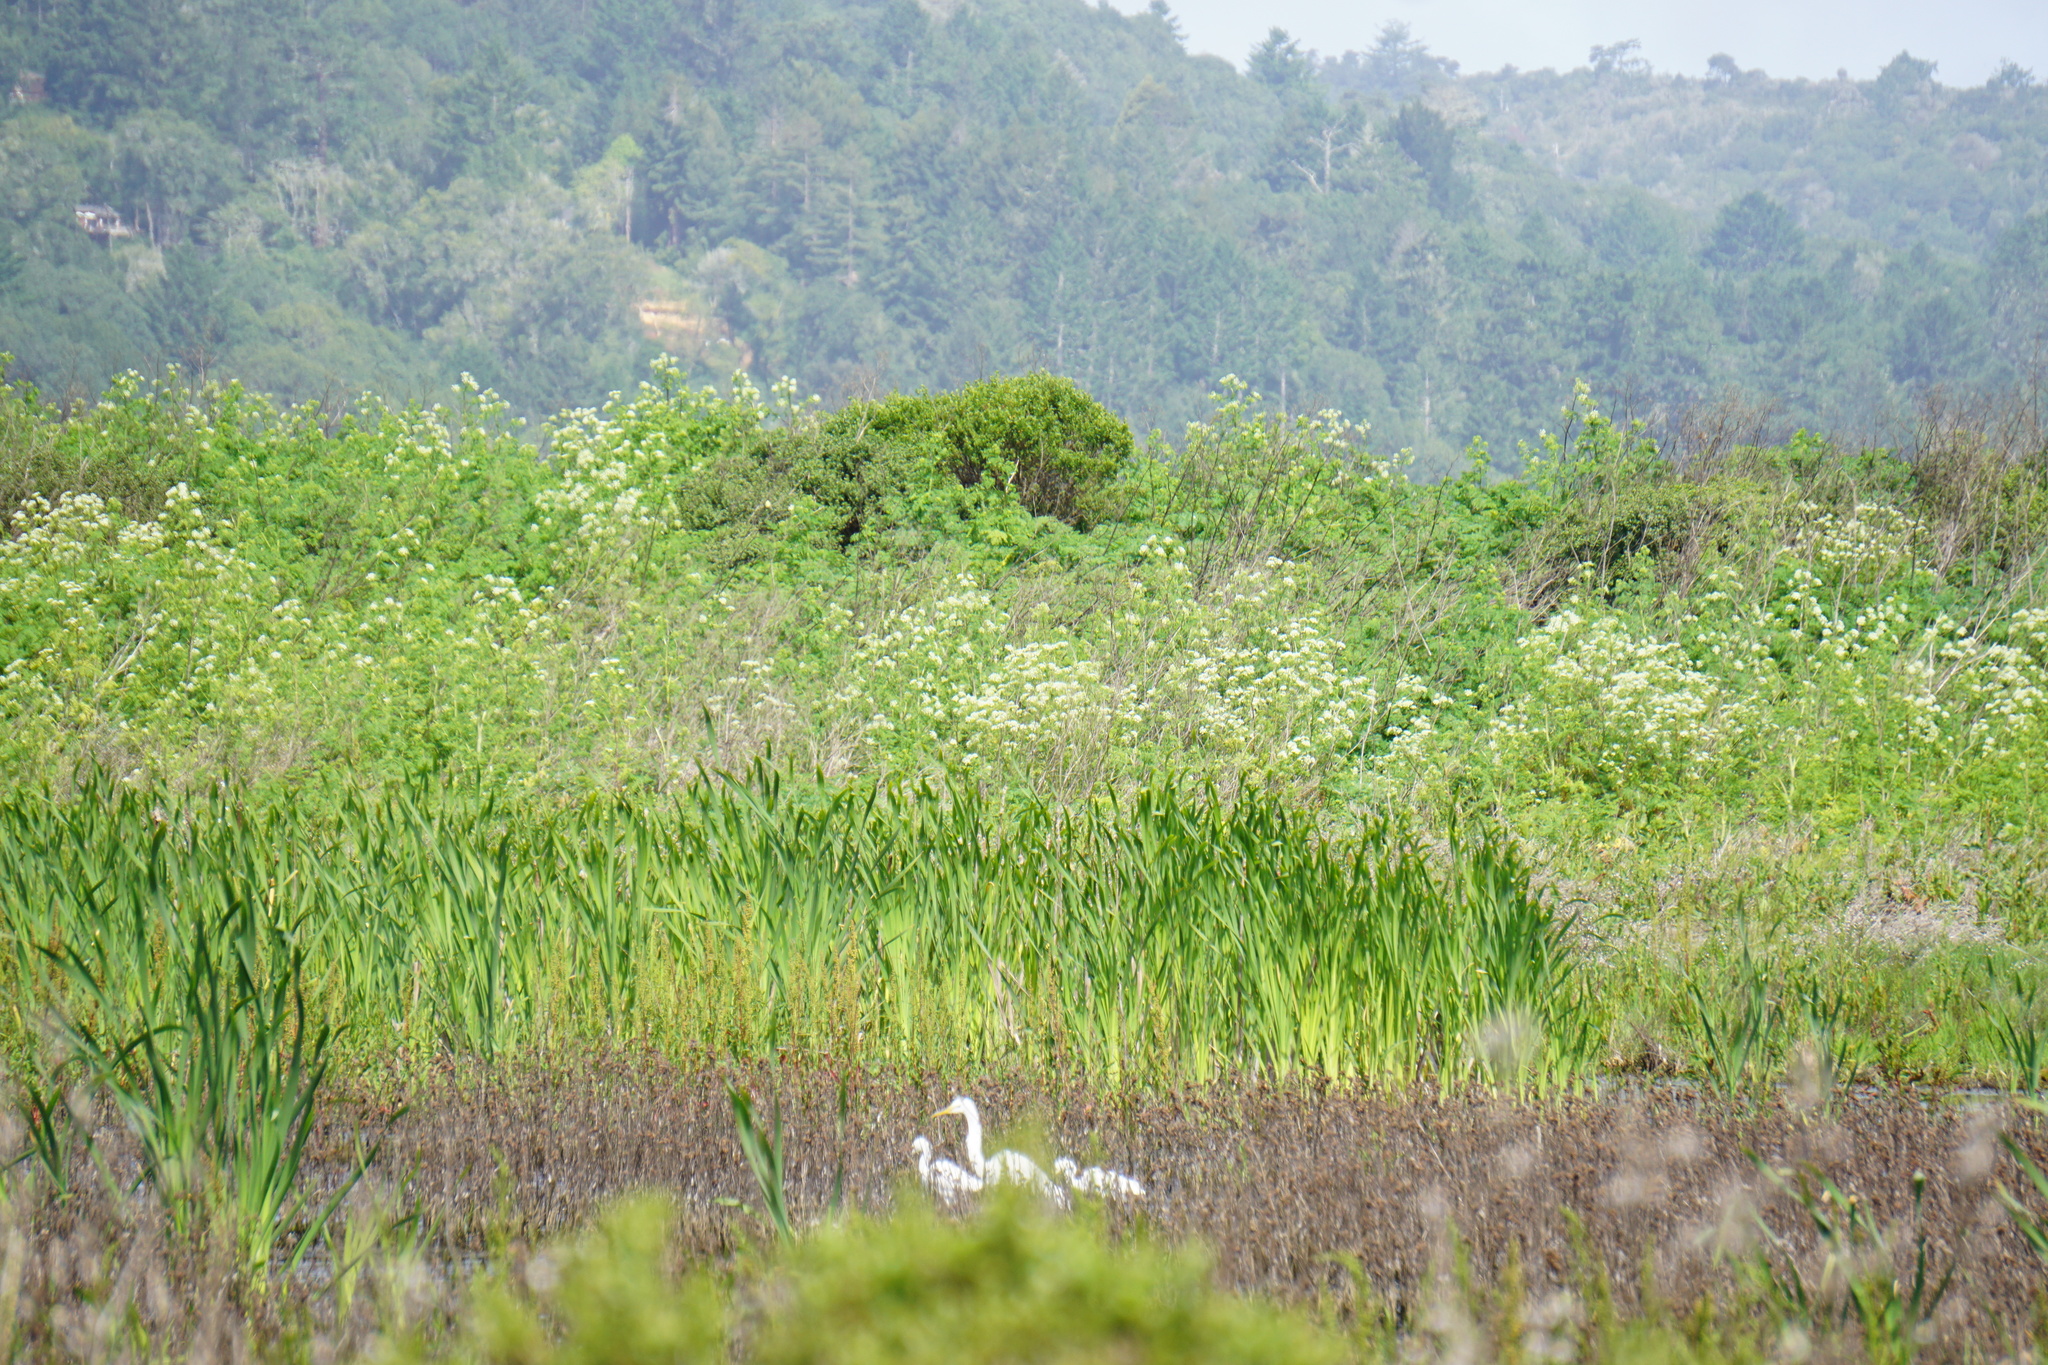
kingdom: Animalia
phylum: Chordata
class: Aves
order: Pelecaniformes
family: Ardeidae
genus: Ardea
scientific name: Ardea alba
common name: Great egret
